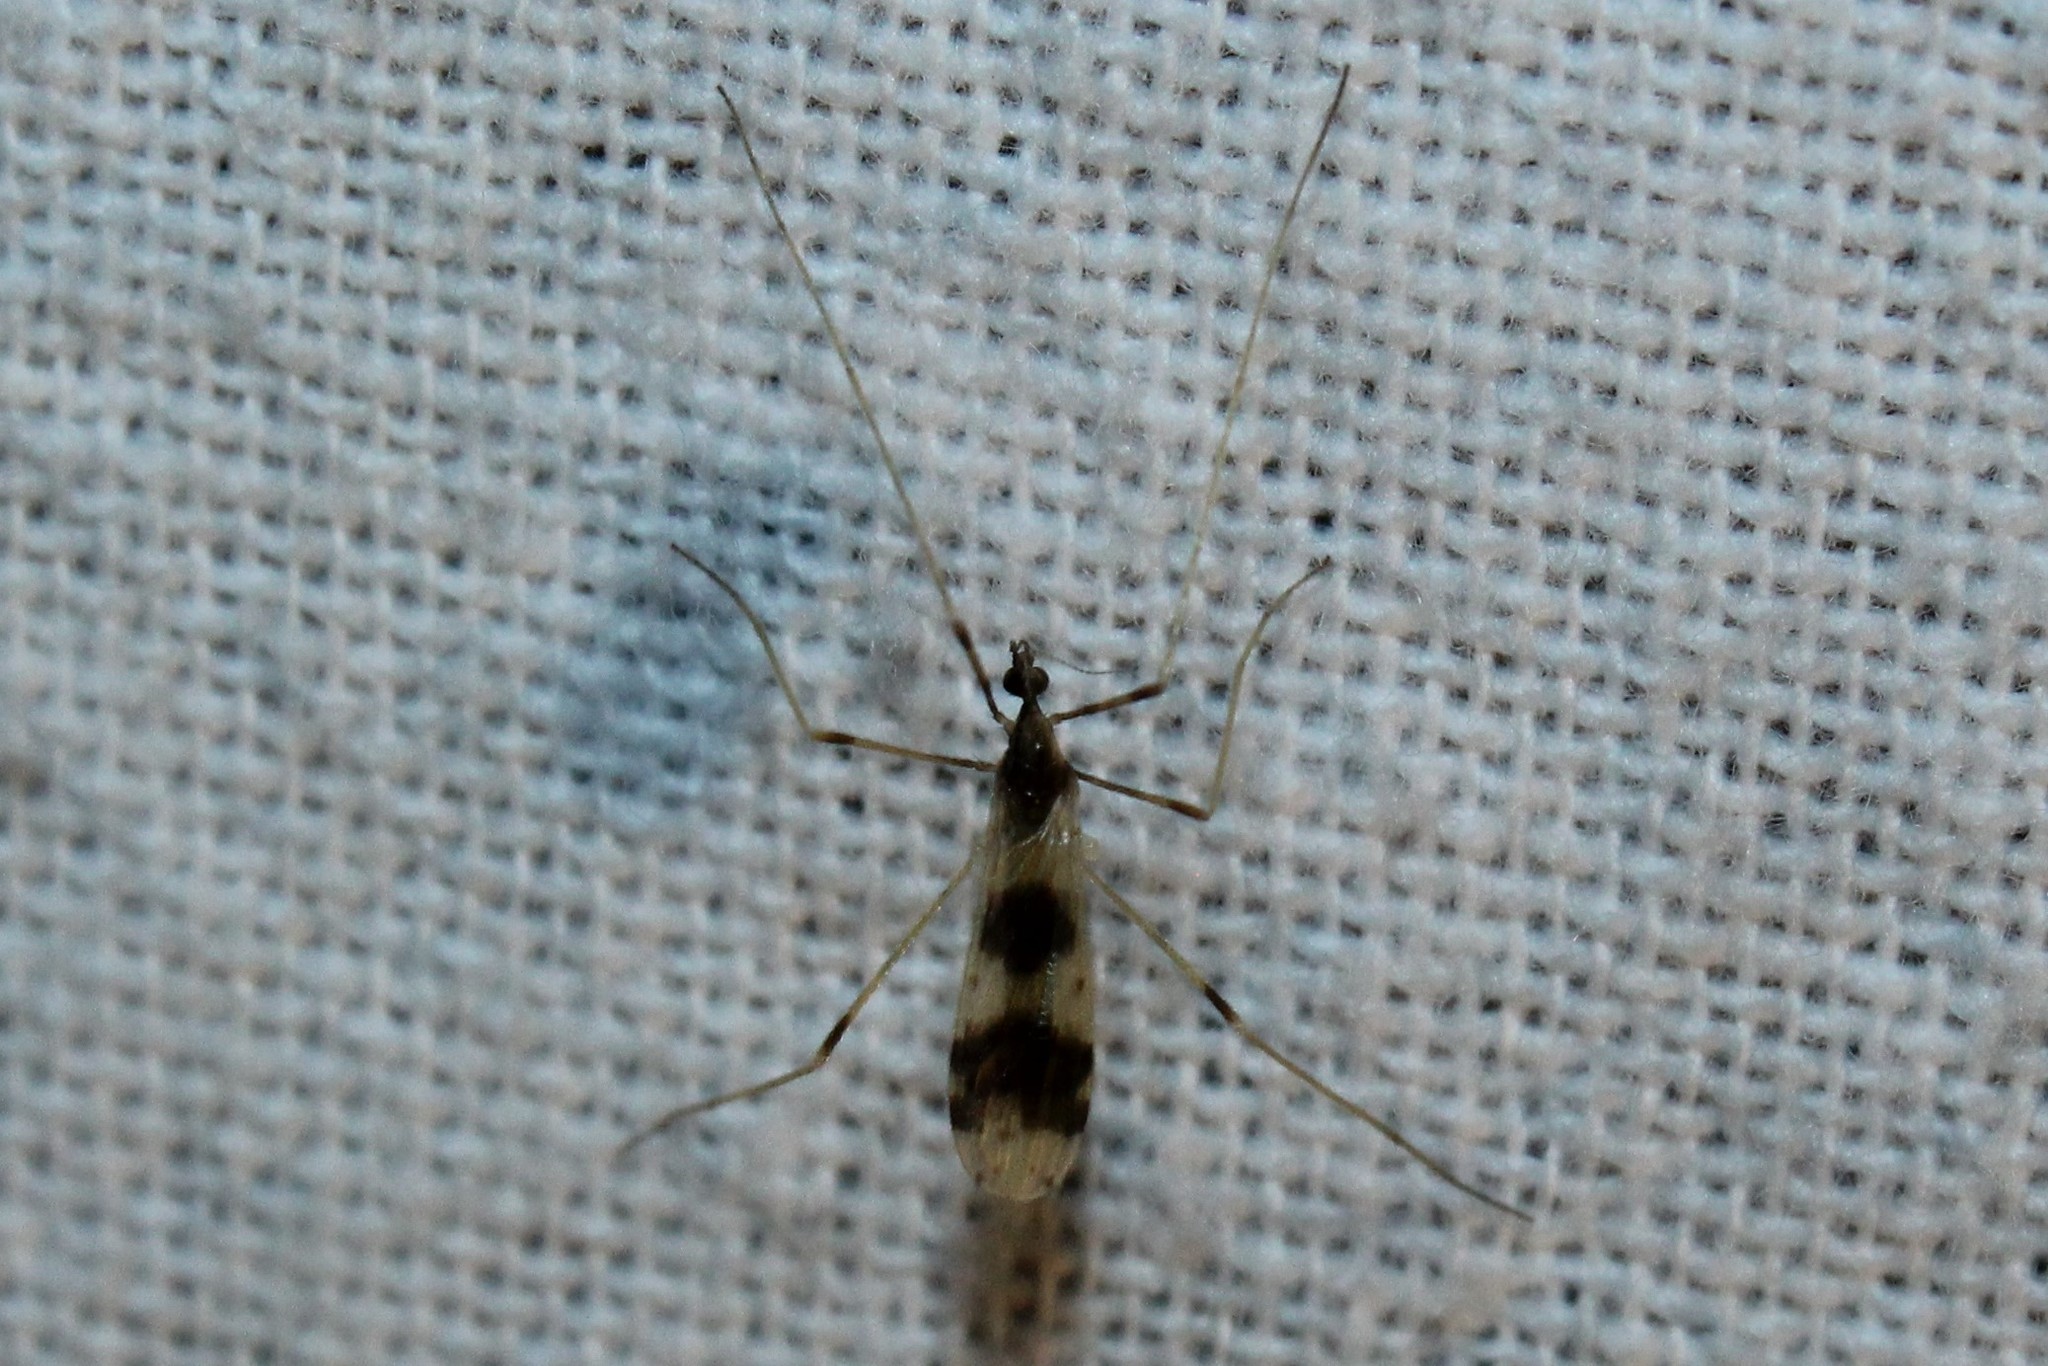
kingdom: Animalia
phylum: Arthropoda
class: Insecta
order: Diptera
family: Limoniidae
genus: Ilisia
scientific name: Ilisia venusta
